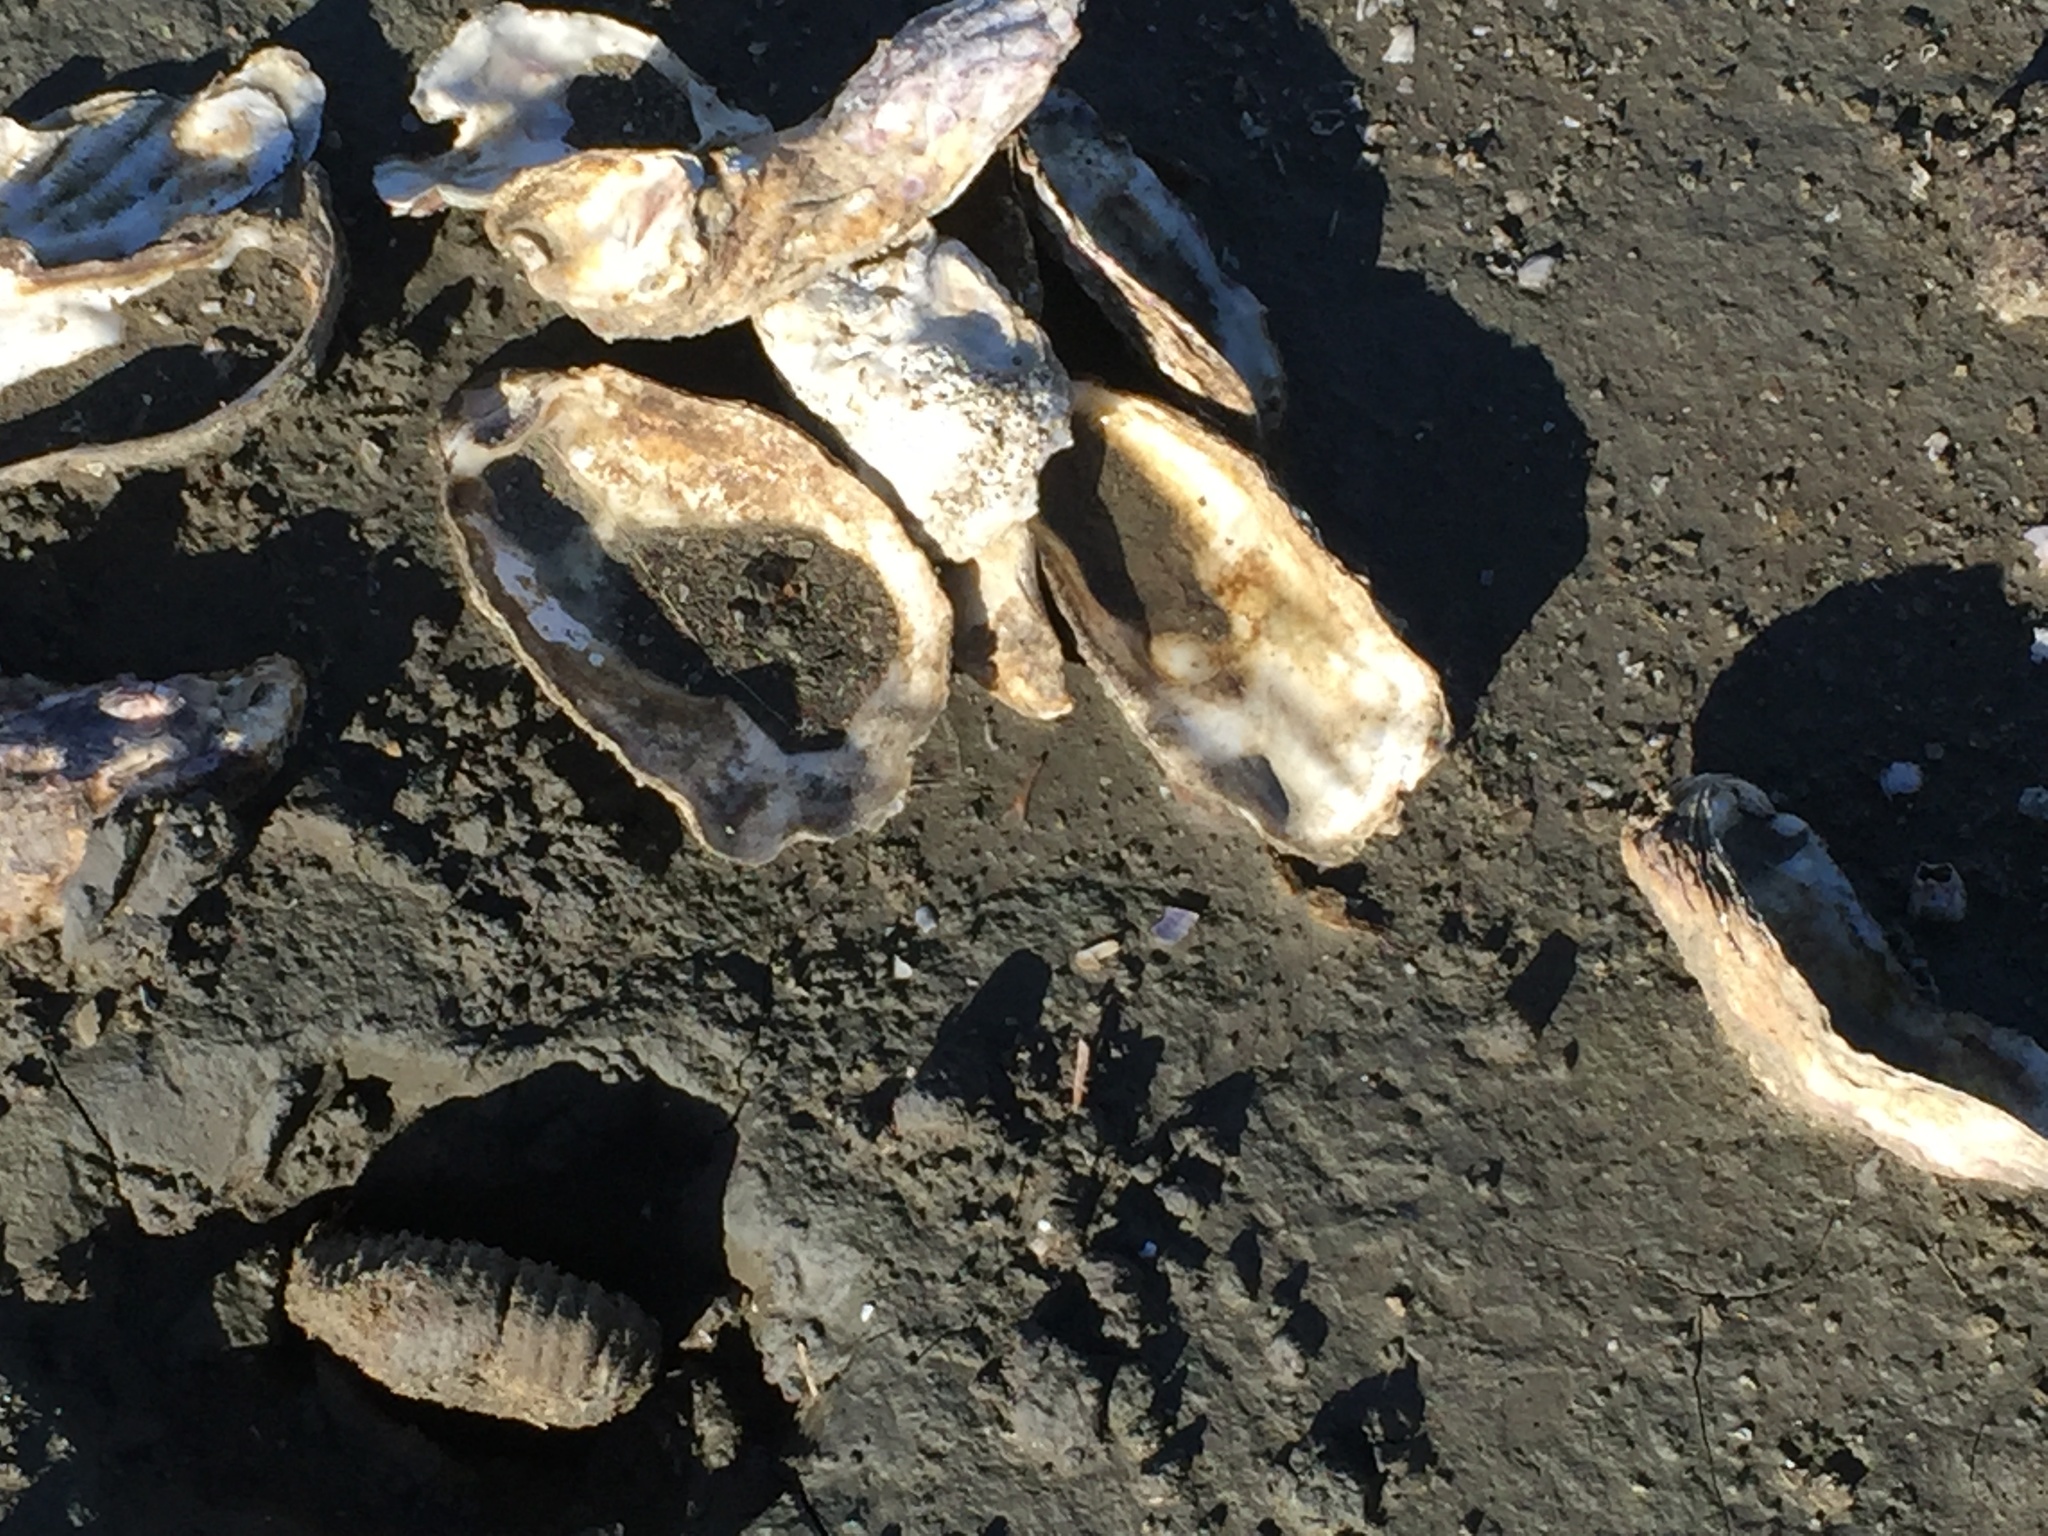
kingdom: Animalia
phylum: Mollusca
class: Bivalvia
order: Ostreida
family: Ostreidae
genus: Magallana
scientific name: Magallana gigas
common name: Pacific oyster
